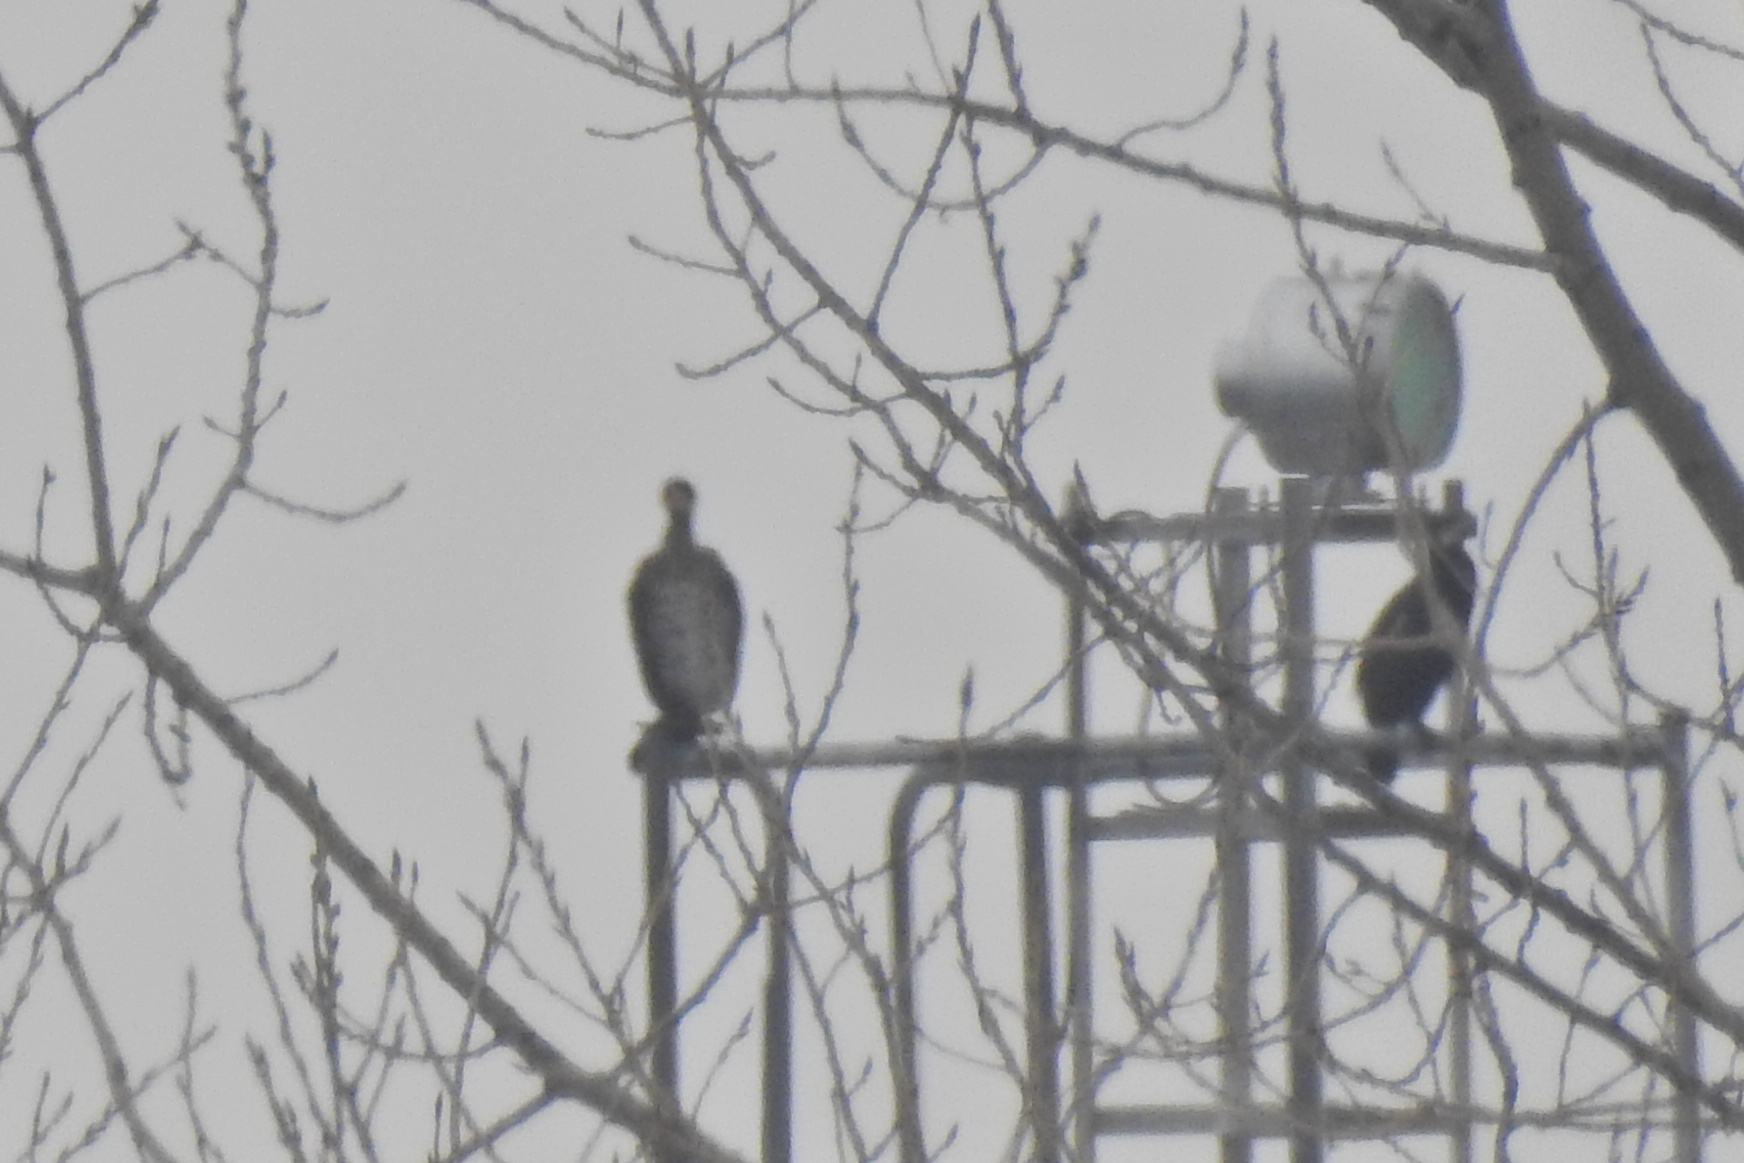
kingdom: Animalia
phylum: Chordata
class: Aves
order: Suliformes
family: Phalacrocoracidae
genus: Phalacrocorax
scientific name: Phalacrocorax auritus
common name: Double-crested cormorant
